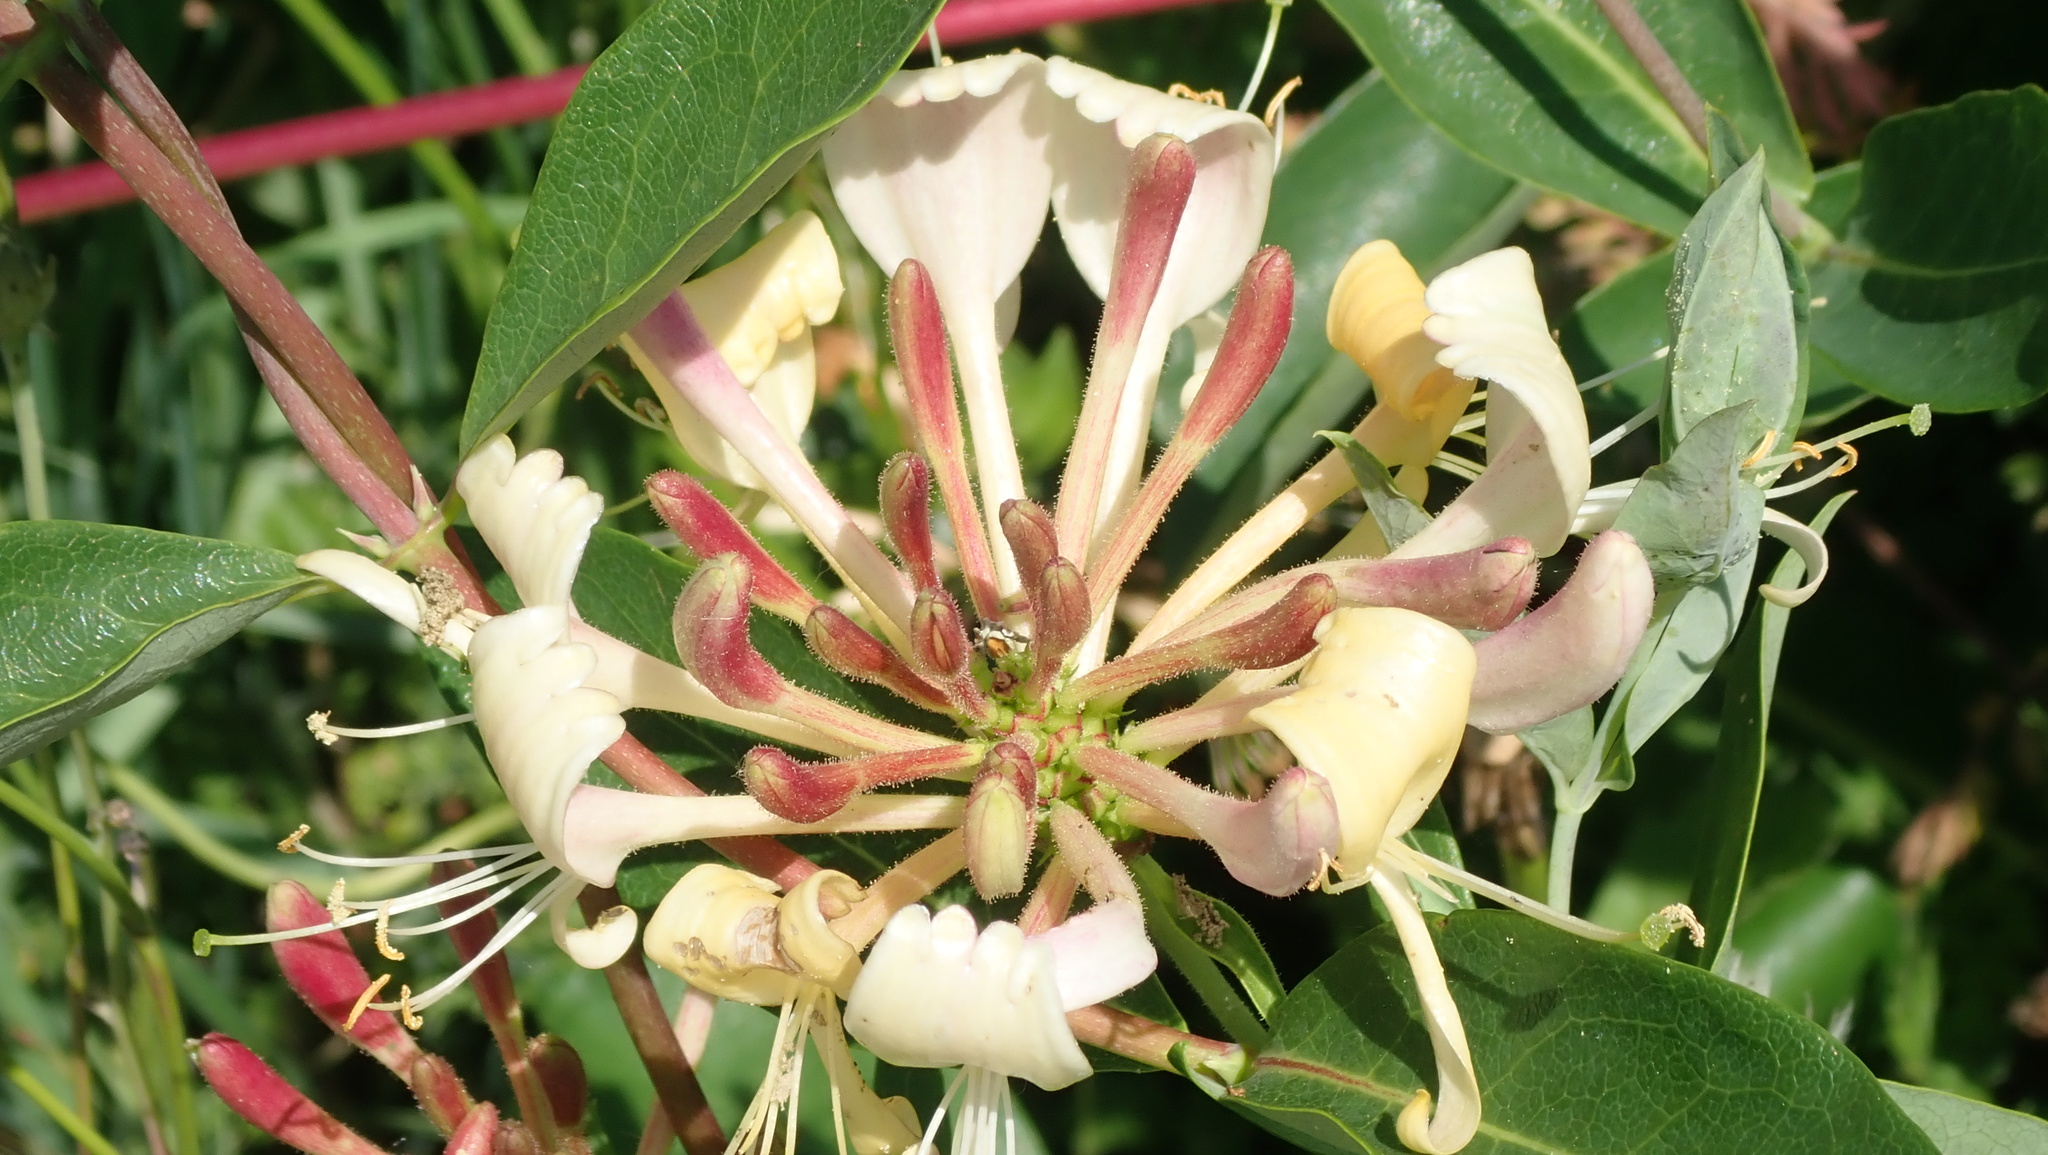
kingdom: Plantae
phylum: Tracheophyta
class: Magnoliopsida
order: Dipsacales
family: Caprifoliaceae
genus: Lonicera
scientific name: Lonicera periclymenum
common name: European honeysuckle
